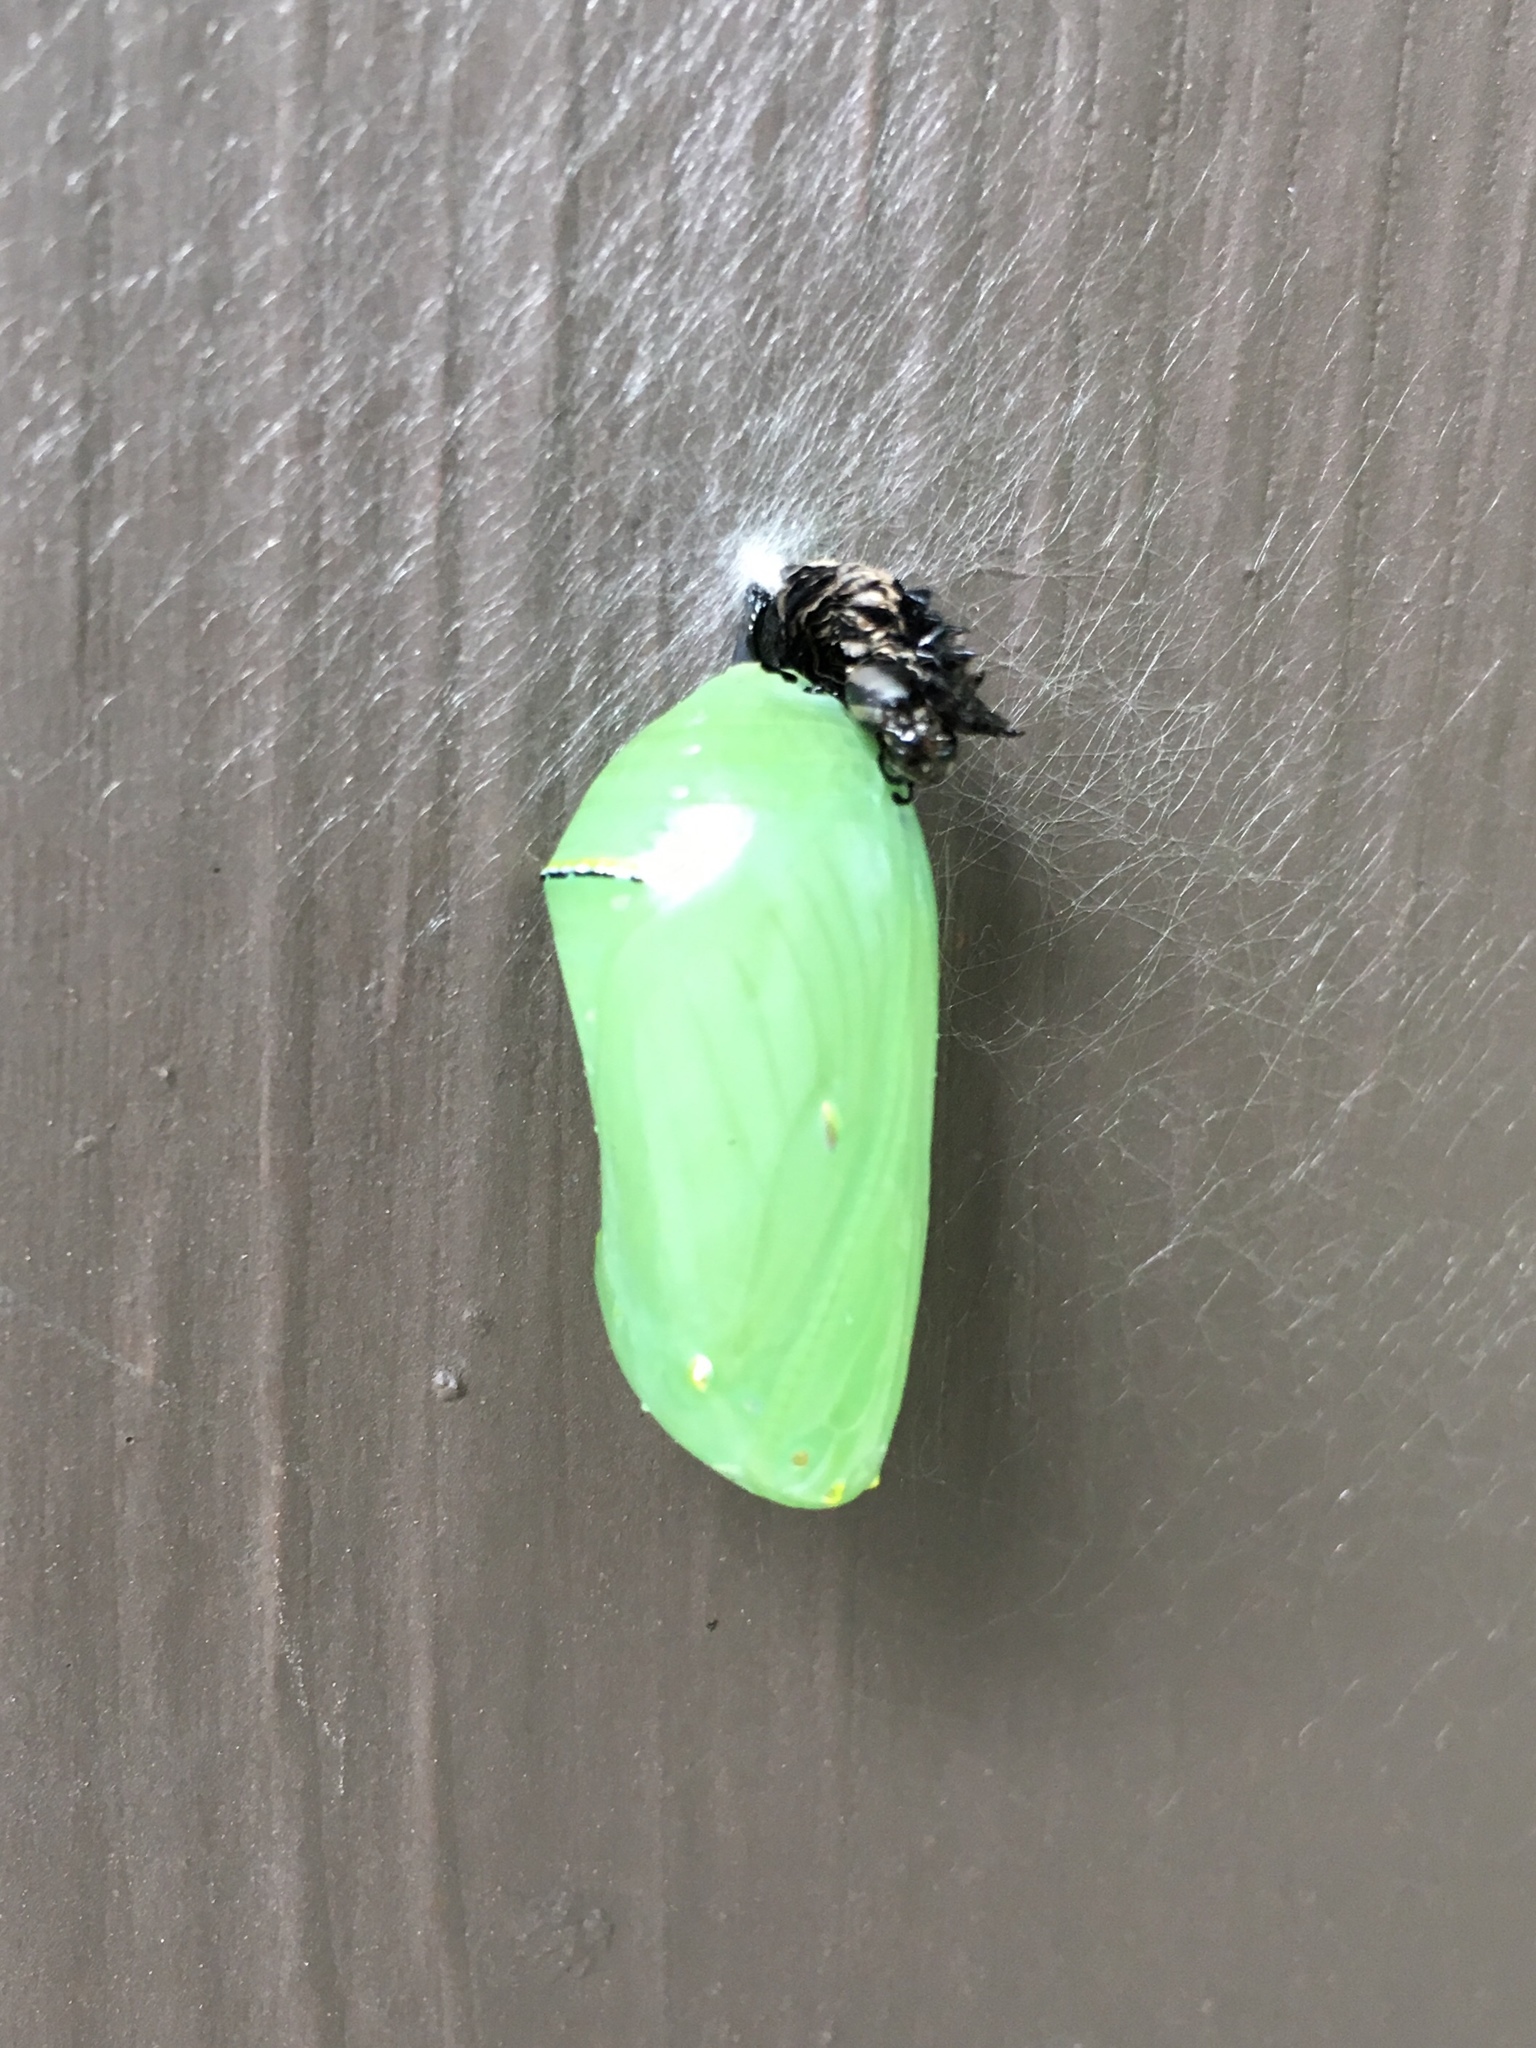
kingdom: Animalia
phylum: Arthropoda
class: Insecta
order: Lepidoptera
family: Nymphalidae
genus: Danaus
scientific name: Danaus plexippus
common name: Monarch
